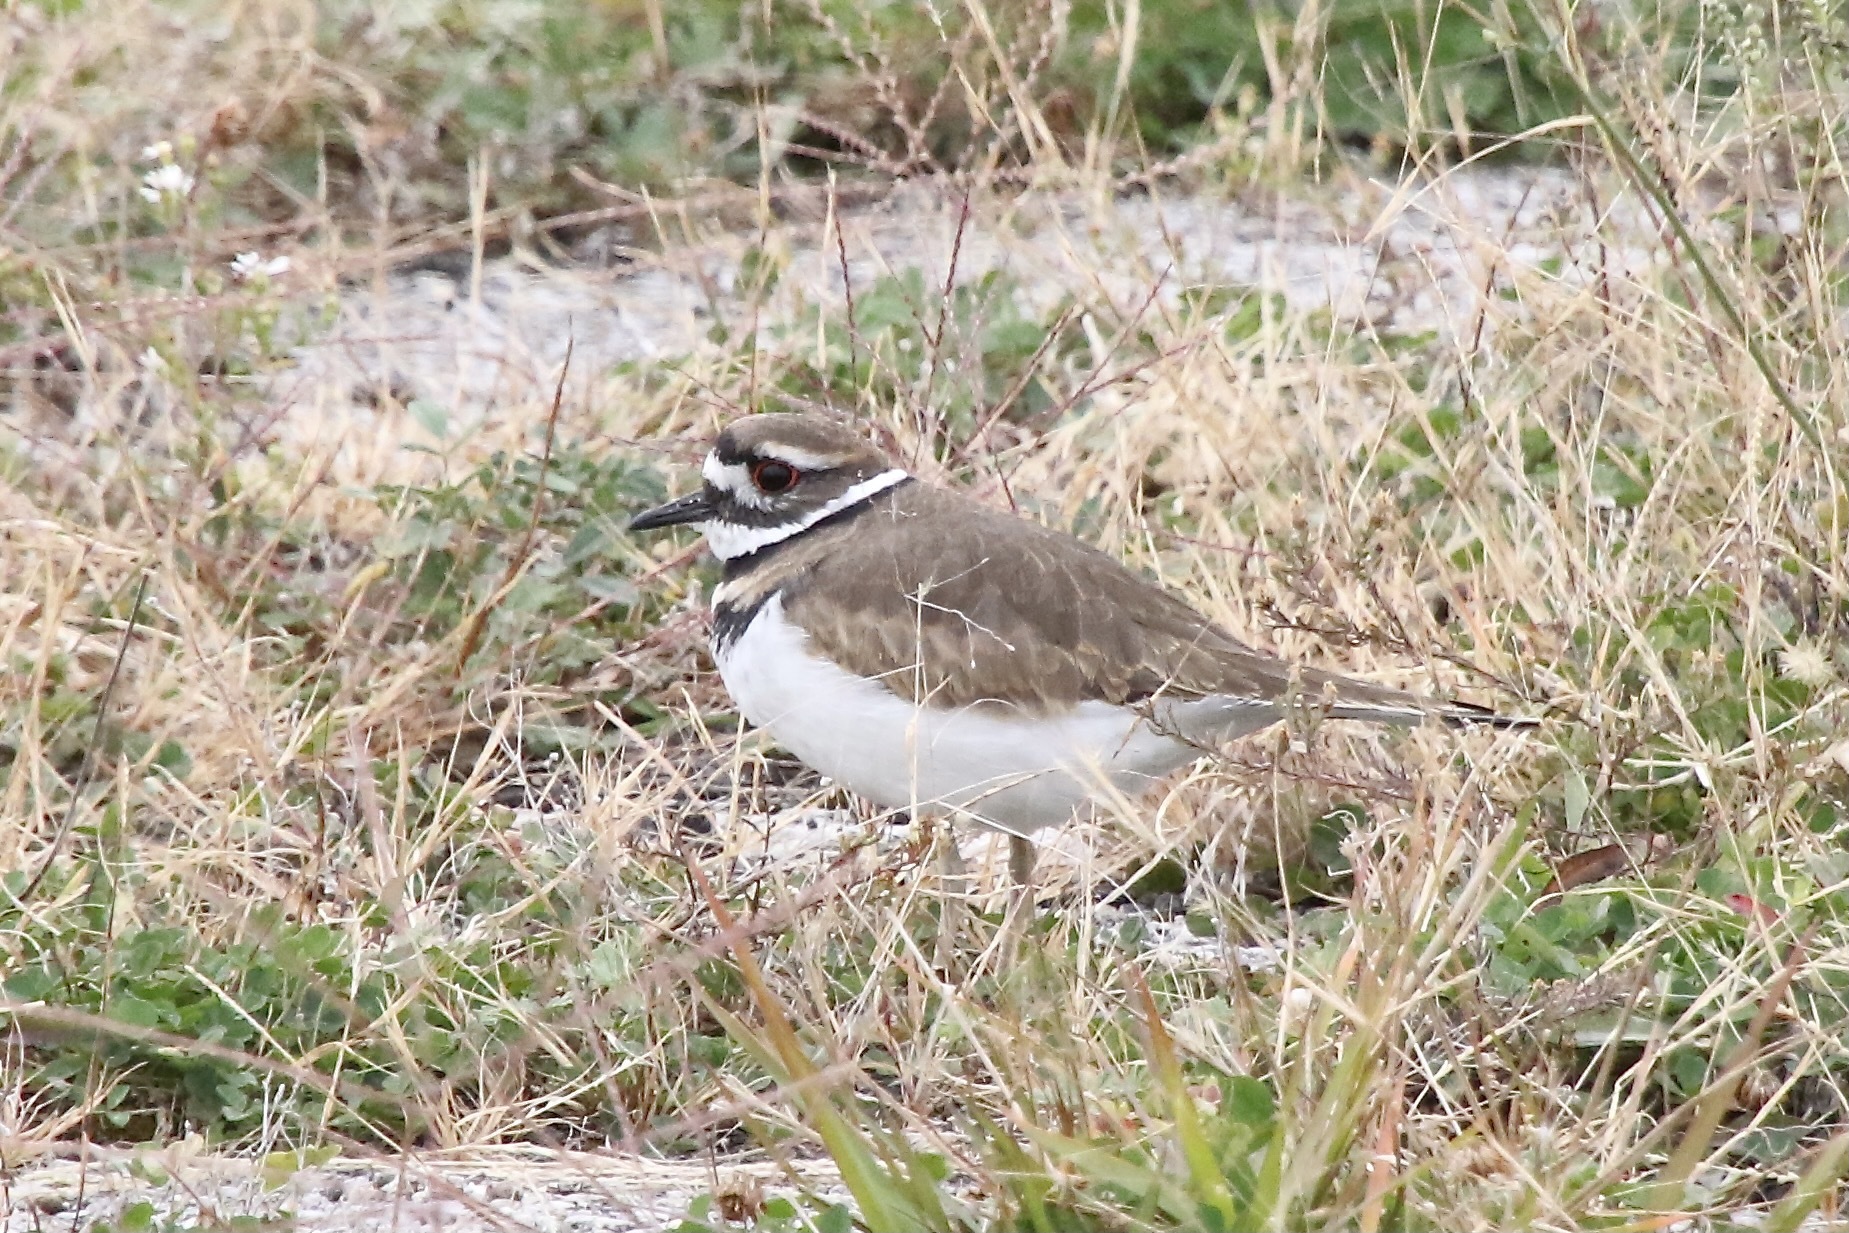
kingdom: Animalia
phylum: Chordata
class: Aves
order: Charadriiformes
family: Charadriidae
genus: Charadrius
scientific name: Charadrius vociferus
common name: Killdeer
